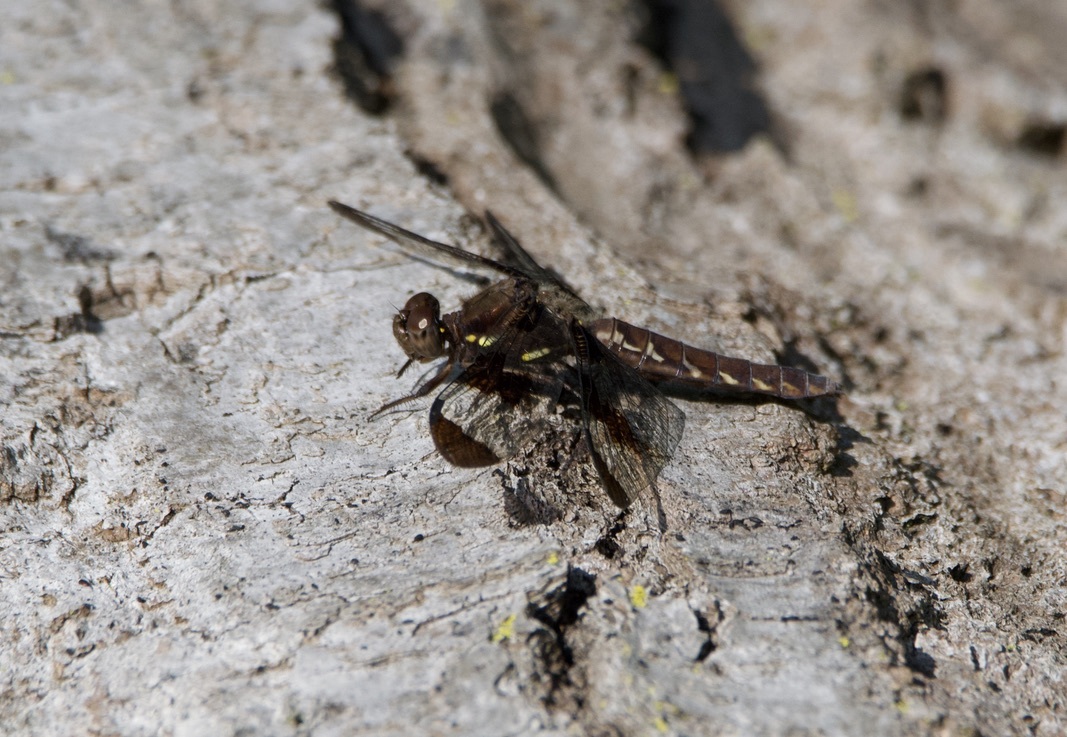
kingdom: Animalia
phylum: Arthropoda
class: Insecta
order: Odonata
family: Libellulidae
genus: Plathemis
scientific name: Plathemis lydia
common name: Common whitetail
